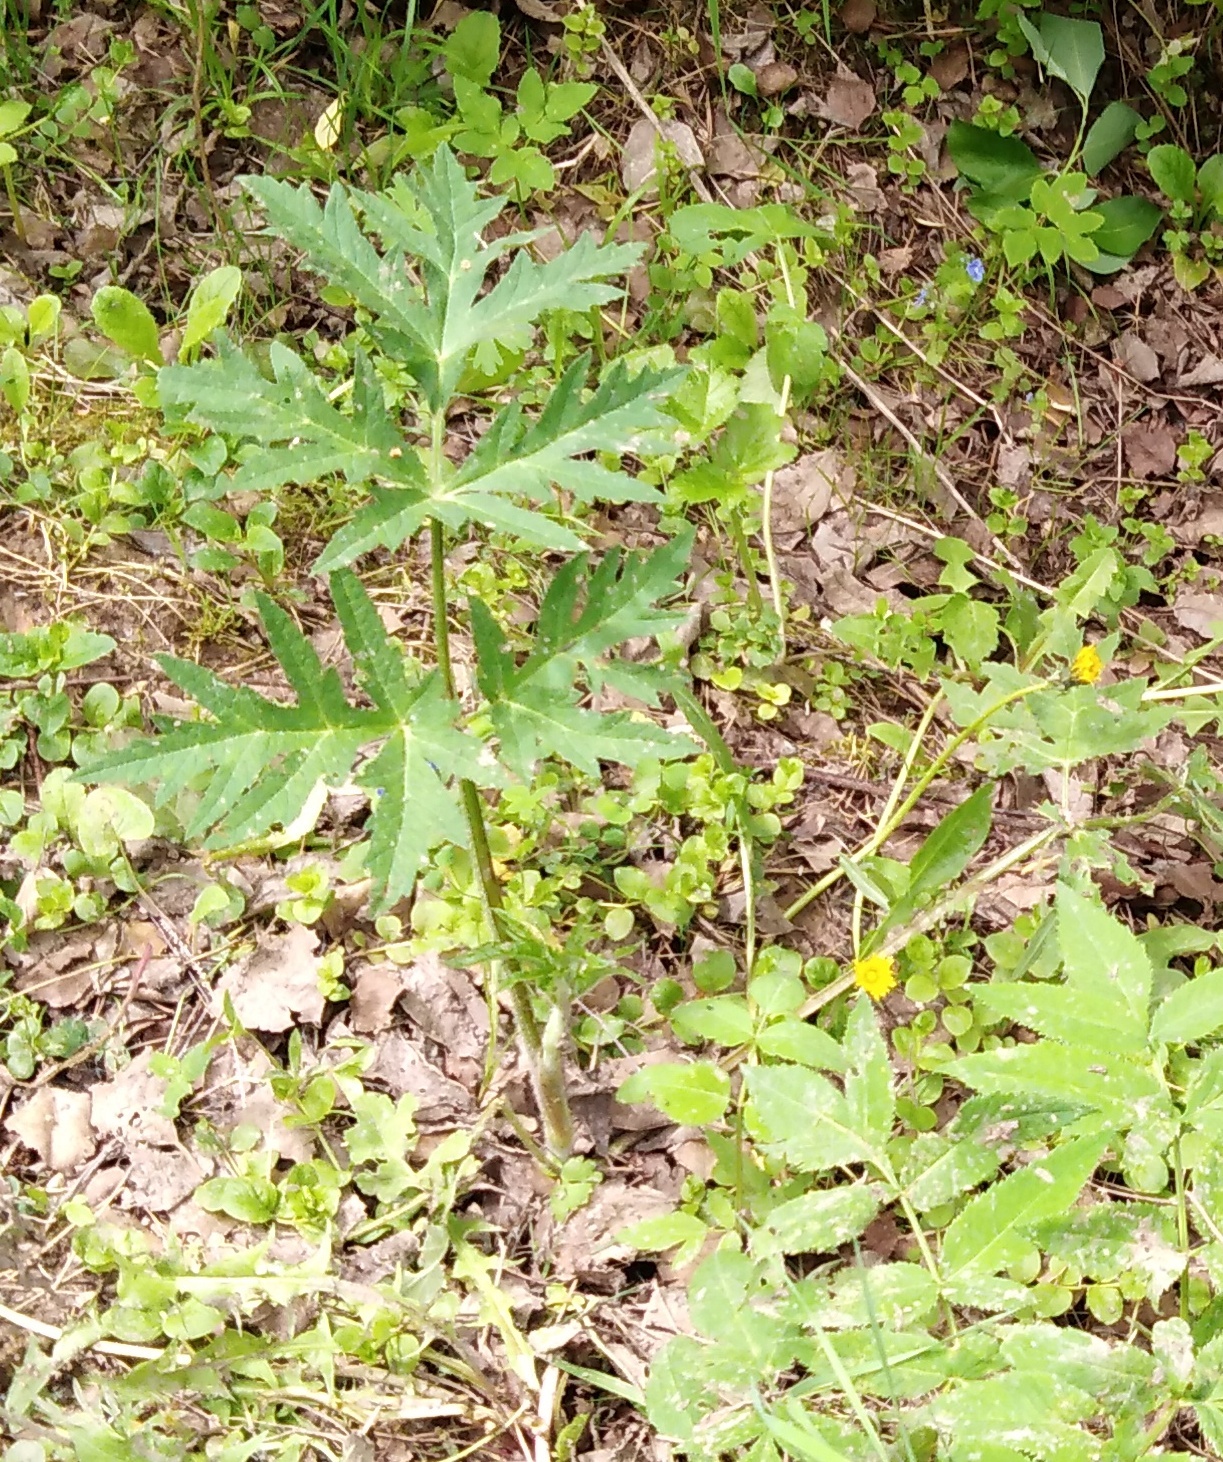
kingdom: Plantae
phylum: Tracheophyta
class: Magnoliopsida
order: Apiales
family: Apiaceae
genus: Heracleum
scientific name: Heracleum sphondylium
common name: Hogweed
